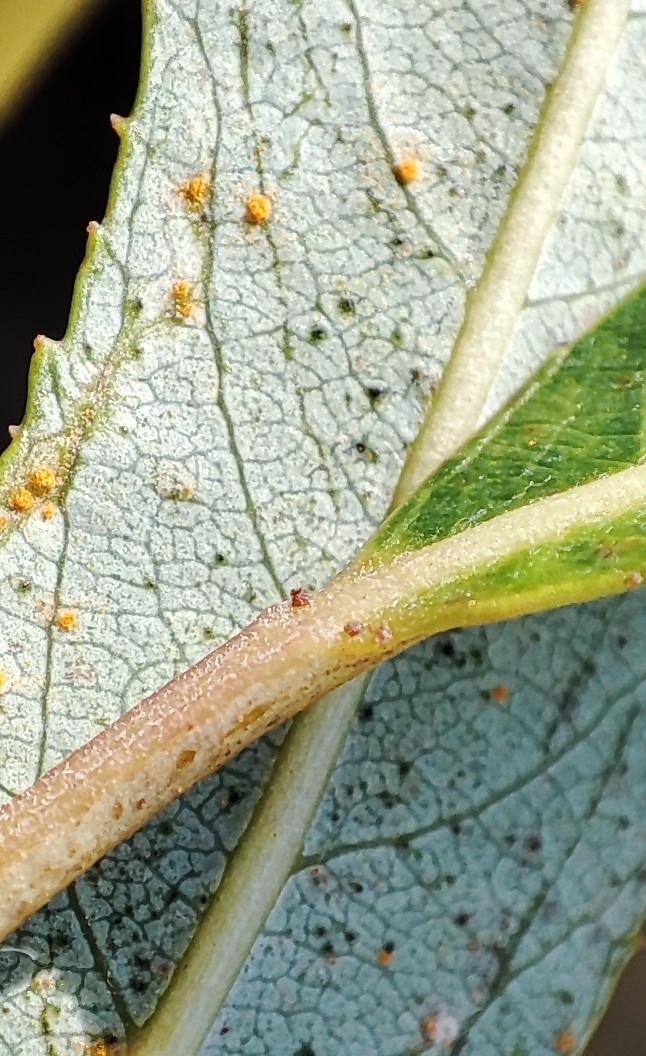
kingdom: Plantae
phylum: Tracheophyta
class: Magnoliopsida
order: Malpighiales
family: Salicaceae
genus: Salix
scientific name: Salix triandra
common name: Almond willow
